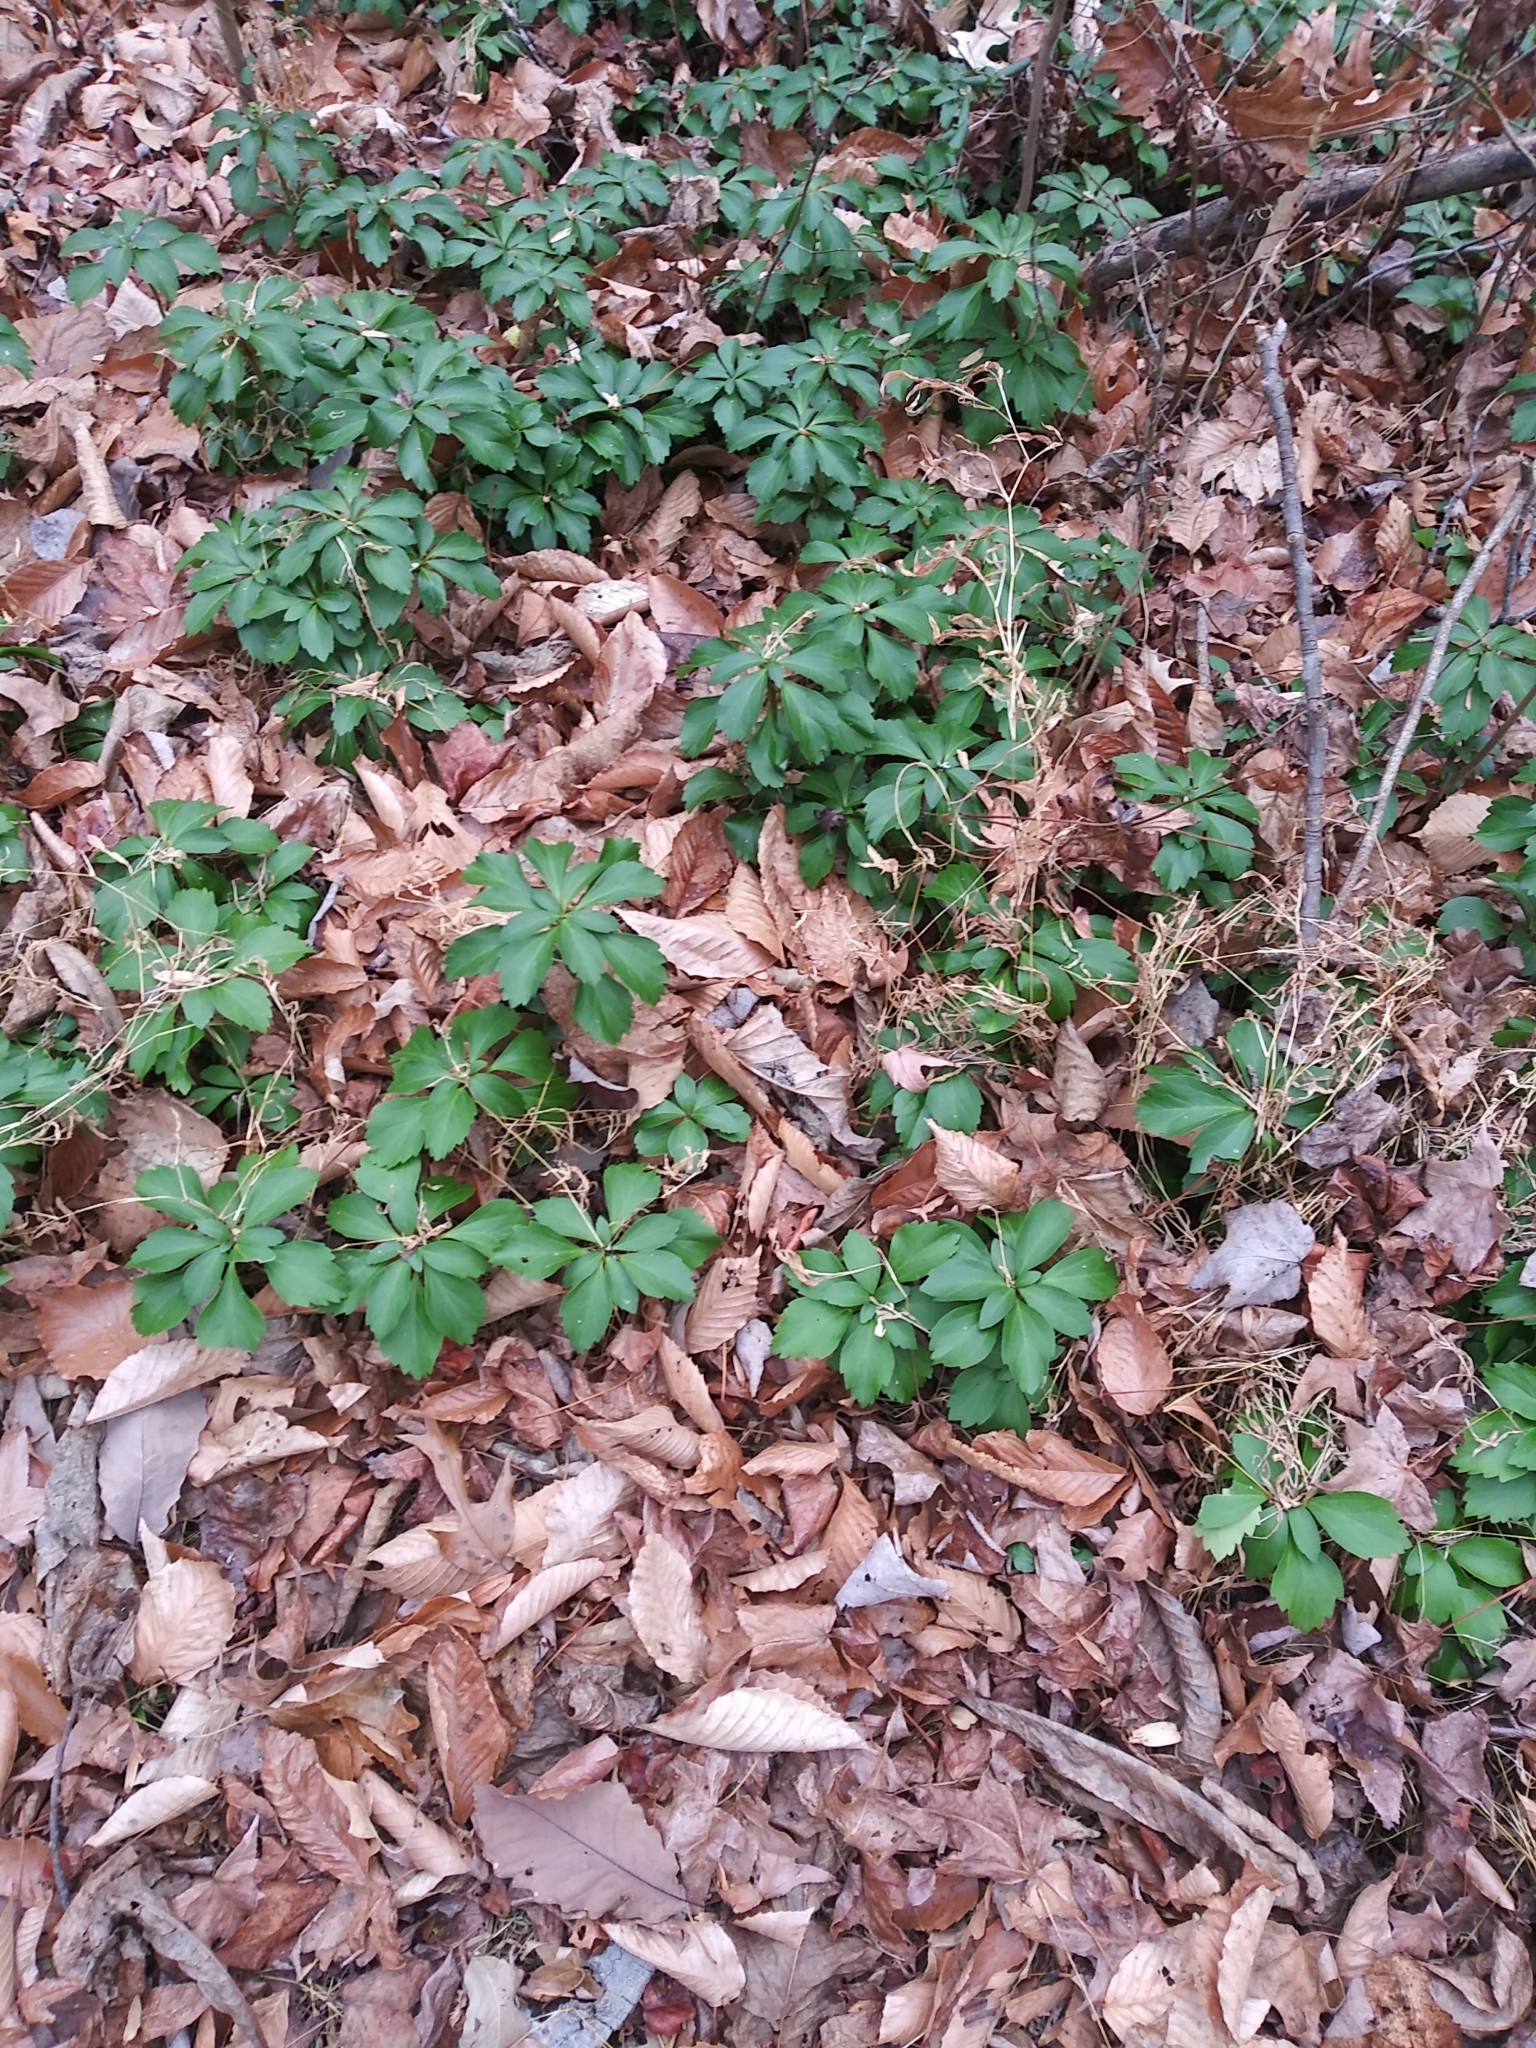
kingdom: Plantae
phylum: Tracheophyta
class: Magnoliopsida
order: Buxales
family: Buxaceae
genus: Pachysandra
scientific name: Pachysandra terminalis
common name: Japanese pachysandra
